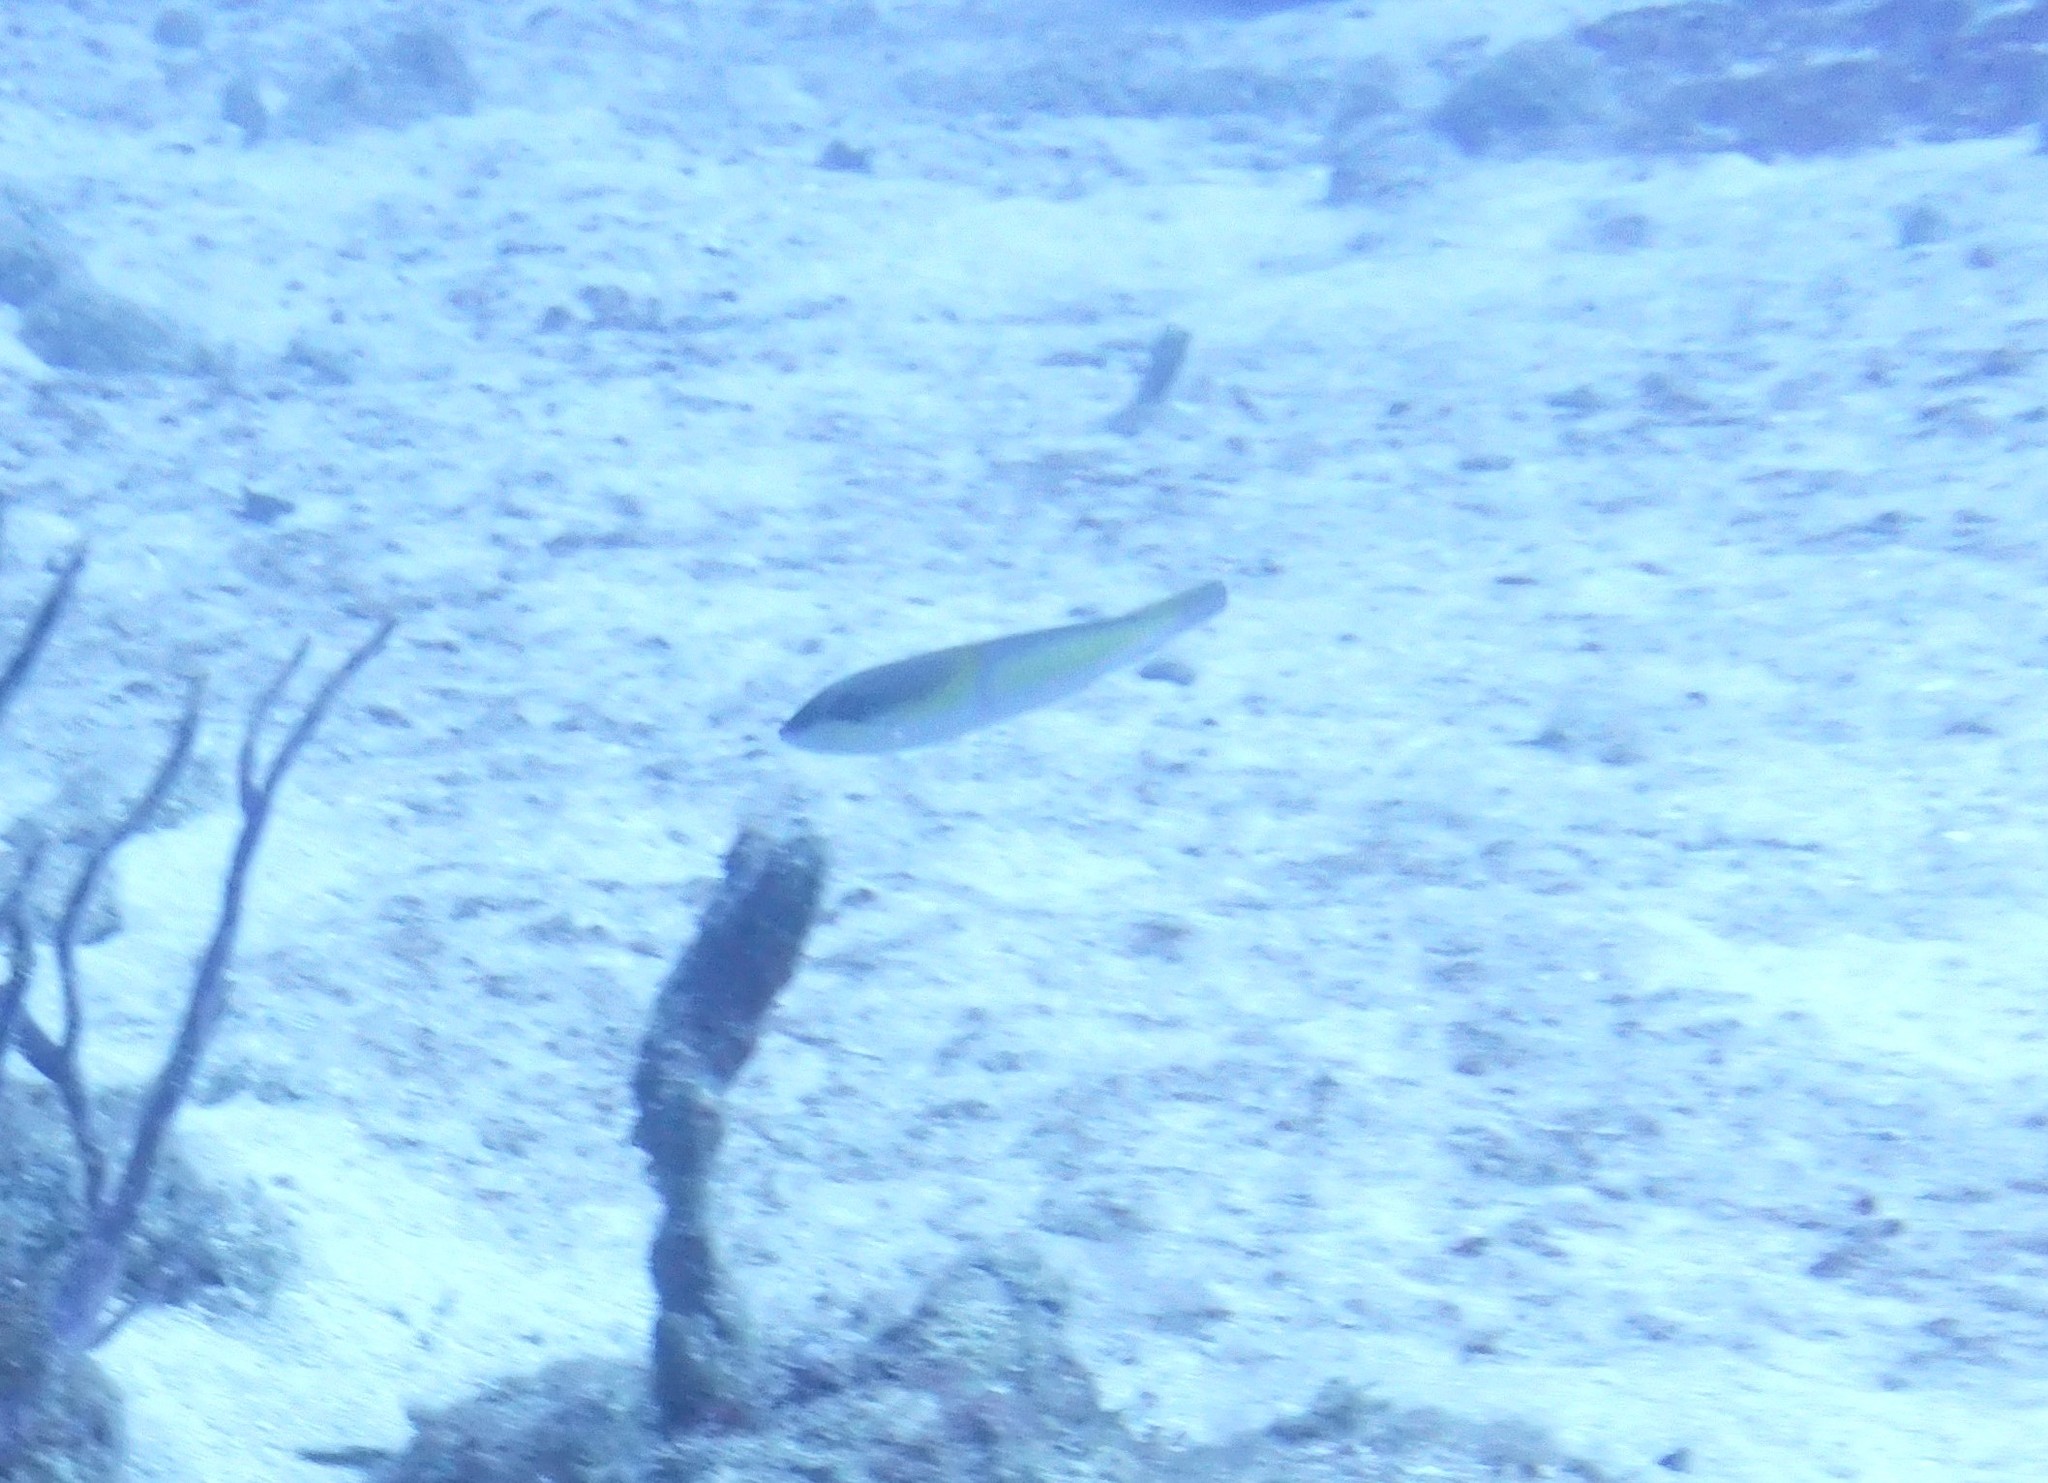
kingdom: Animalia
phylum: Chordata
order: Perciformes
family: Labridae
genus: Halichoeres
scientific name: Halichoeres garnoti
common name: Yellowhead wrasse
